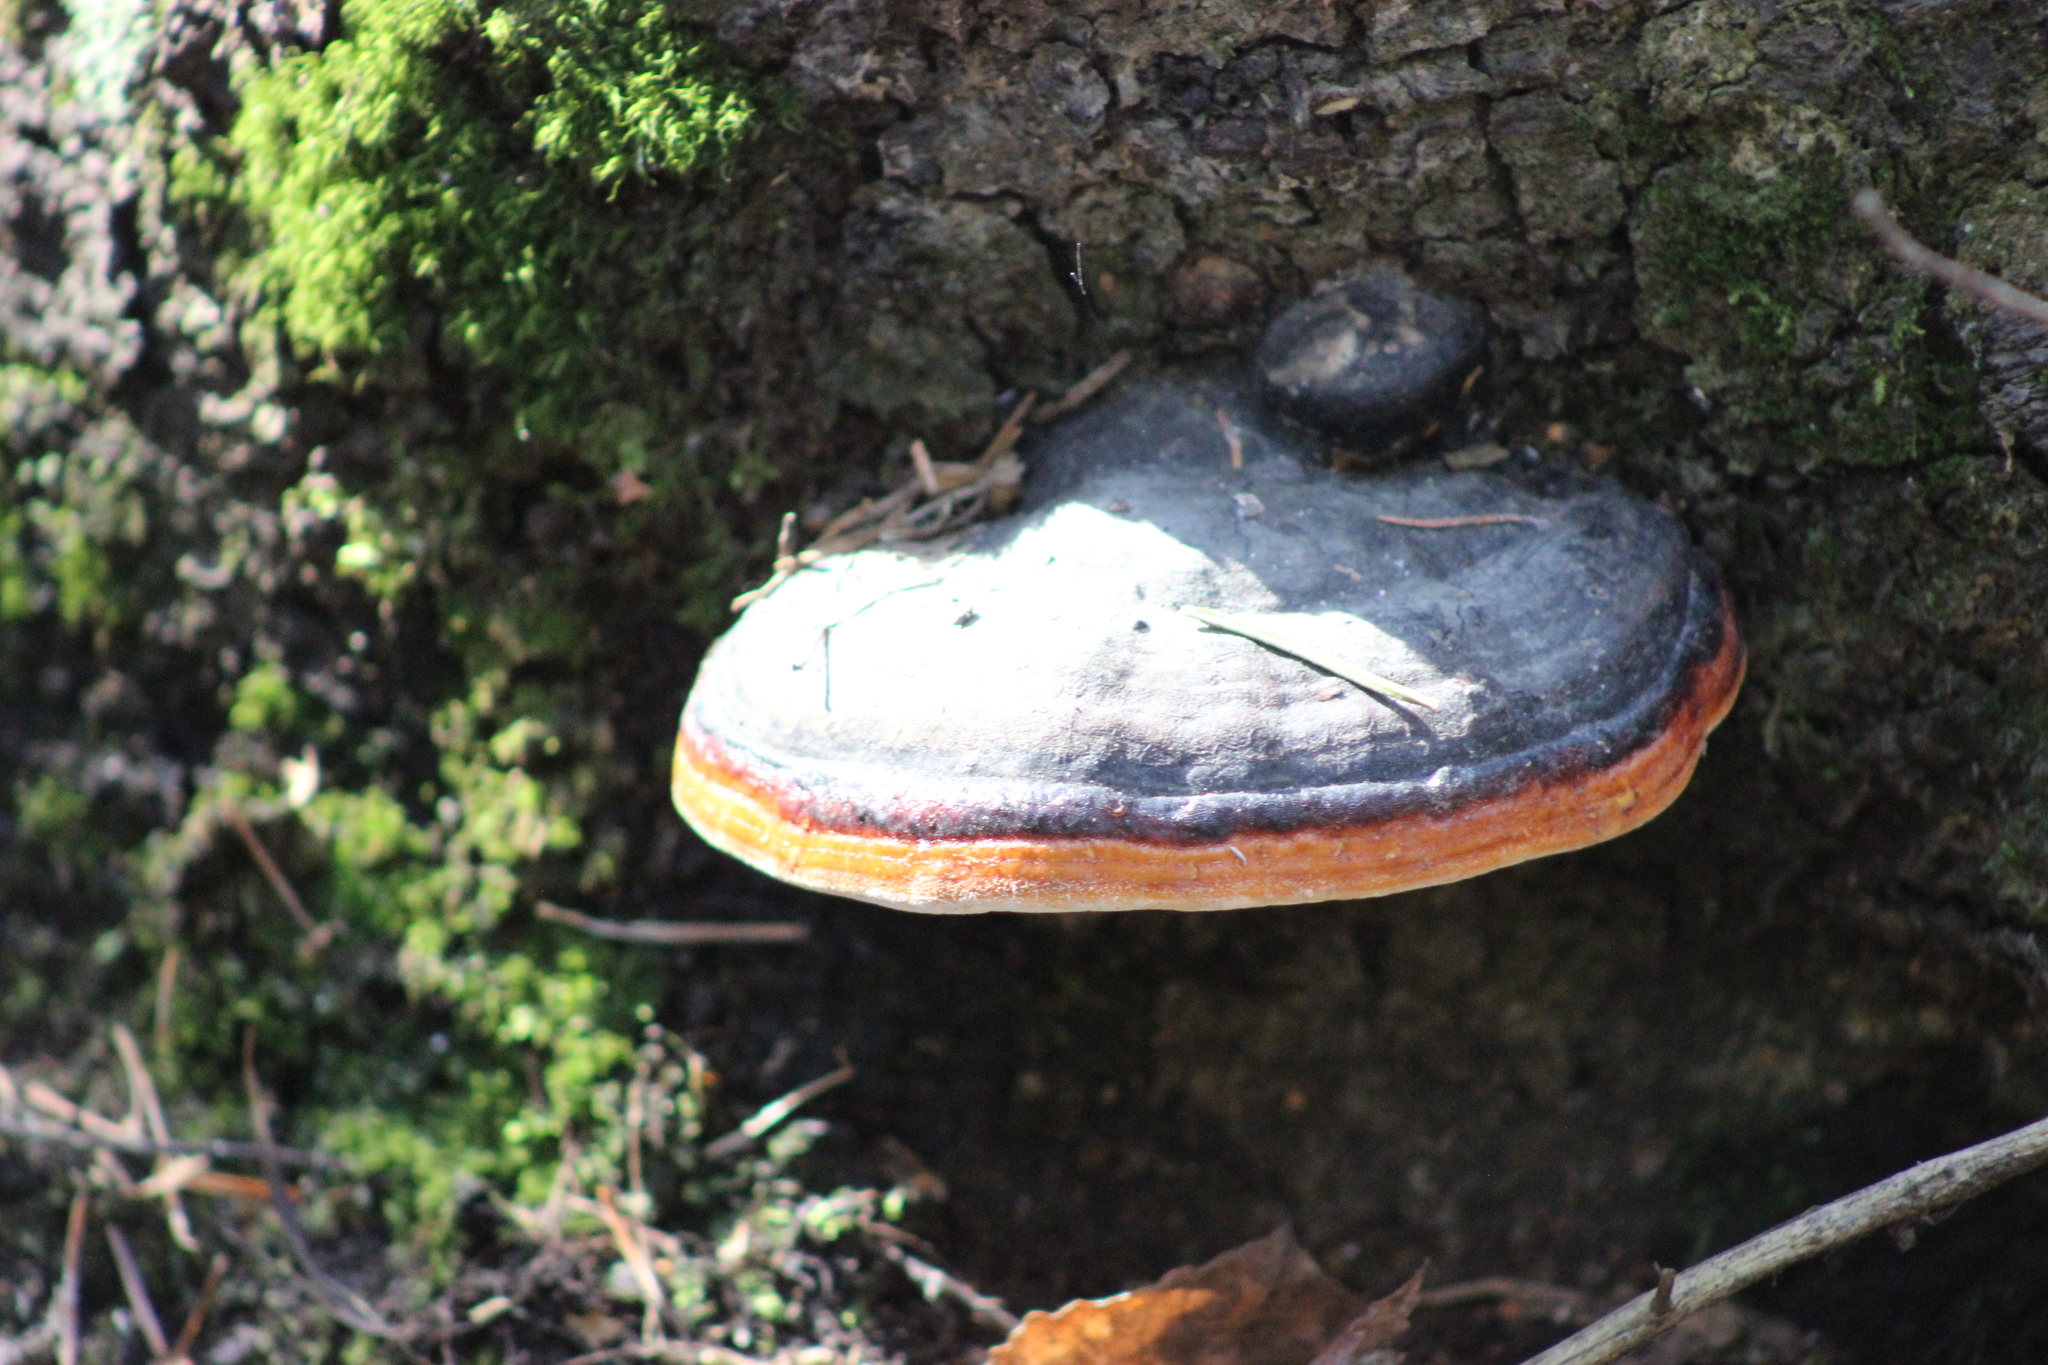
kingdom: Fungi
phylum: Basidiomycota
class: Agaricomycetes
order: Polyporales
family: Fomitopsidaceae
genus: Fomitopsis
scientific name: Fomitopsis pinicola
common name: Red-belted bracket
